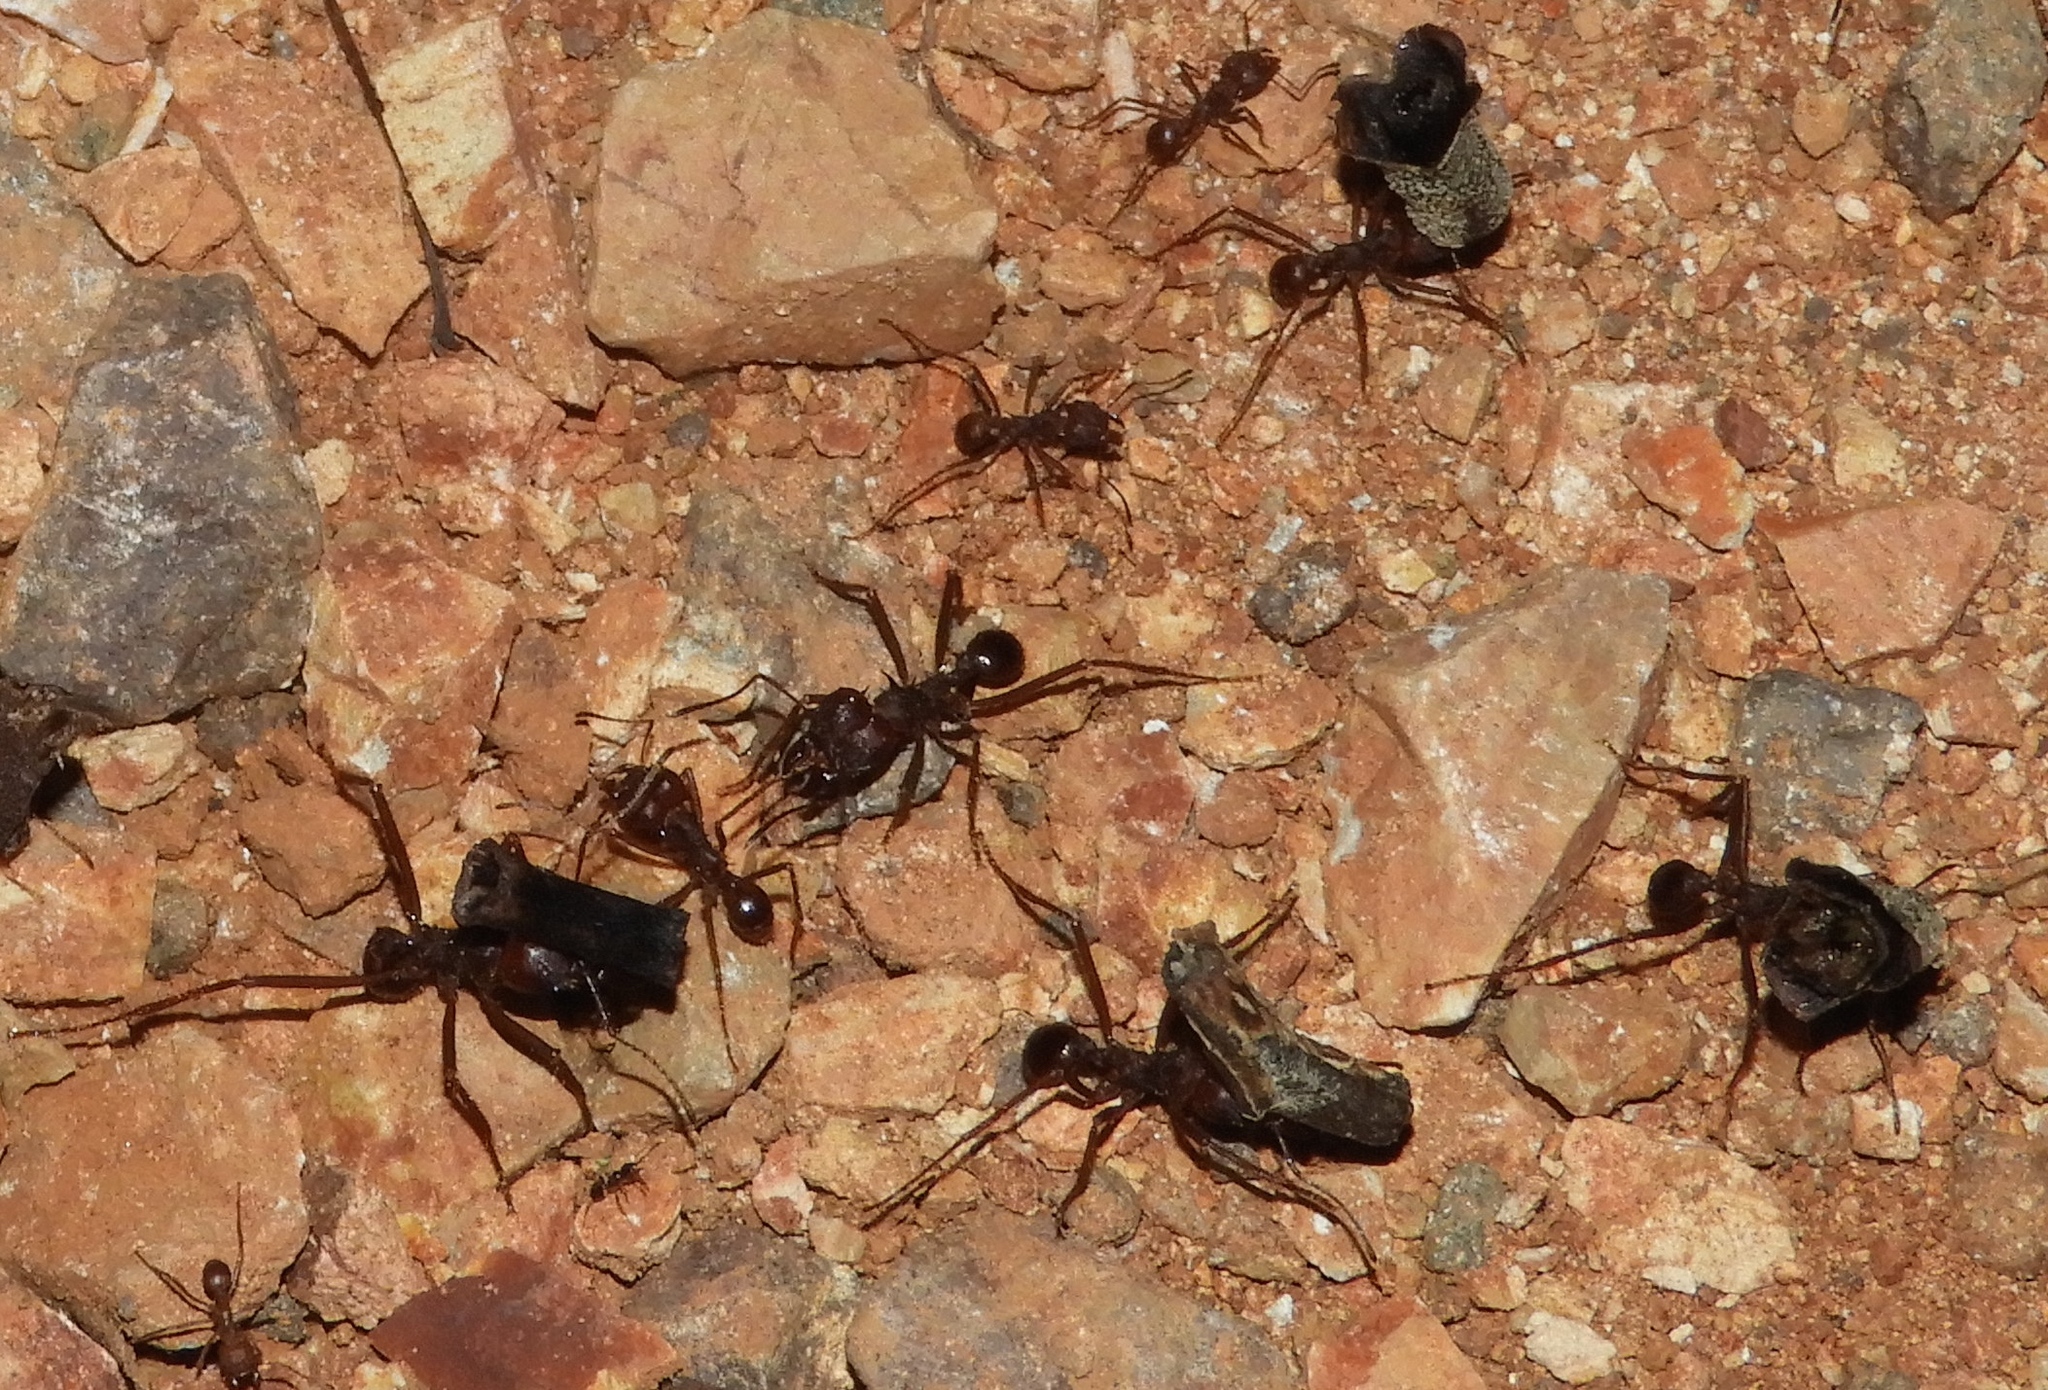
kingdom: Animalia
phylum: Arthropoda
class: Insecta
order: Hymenoptera
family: Formicidae
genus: Atta
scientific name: Atta mexicana
